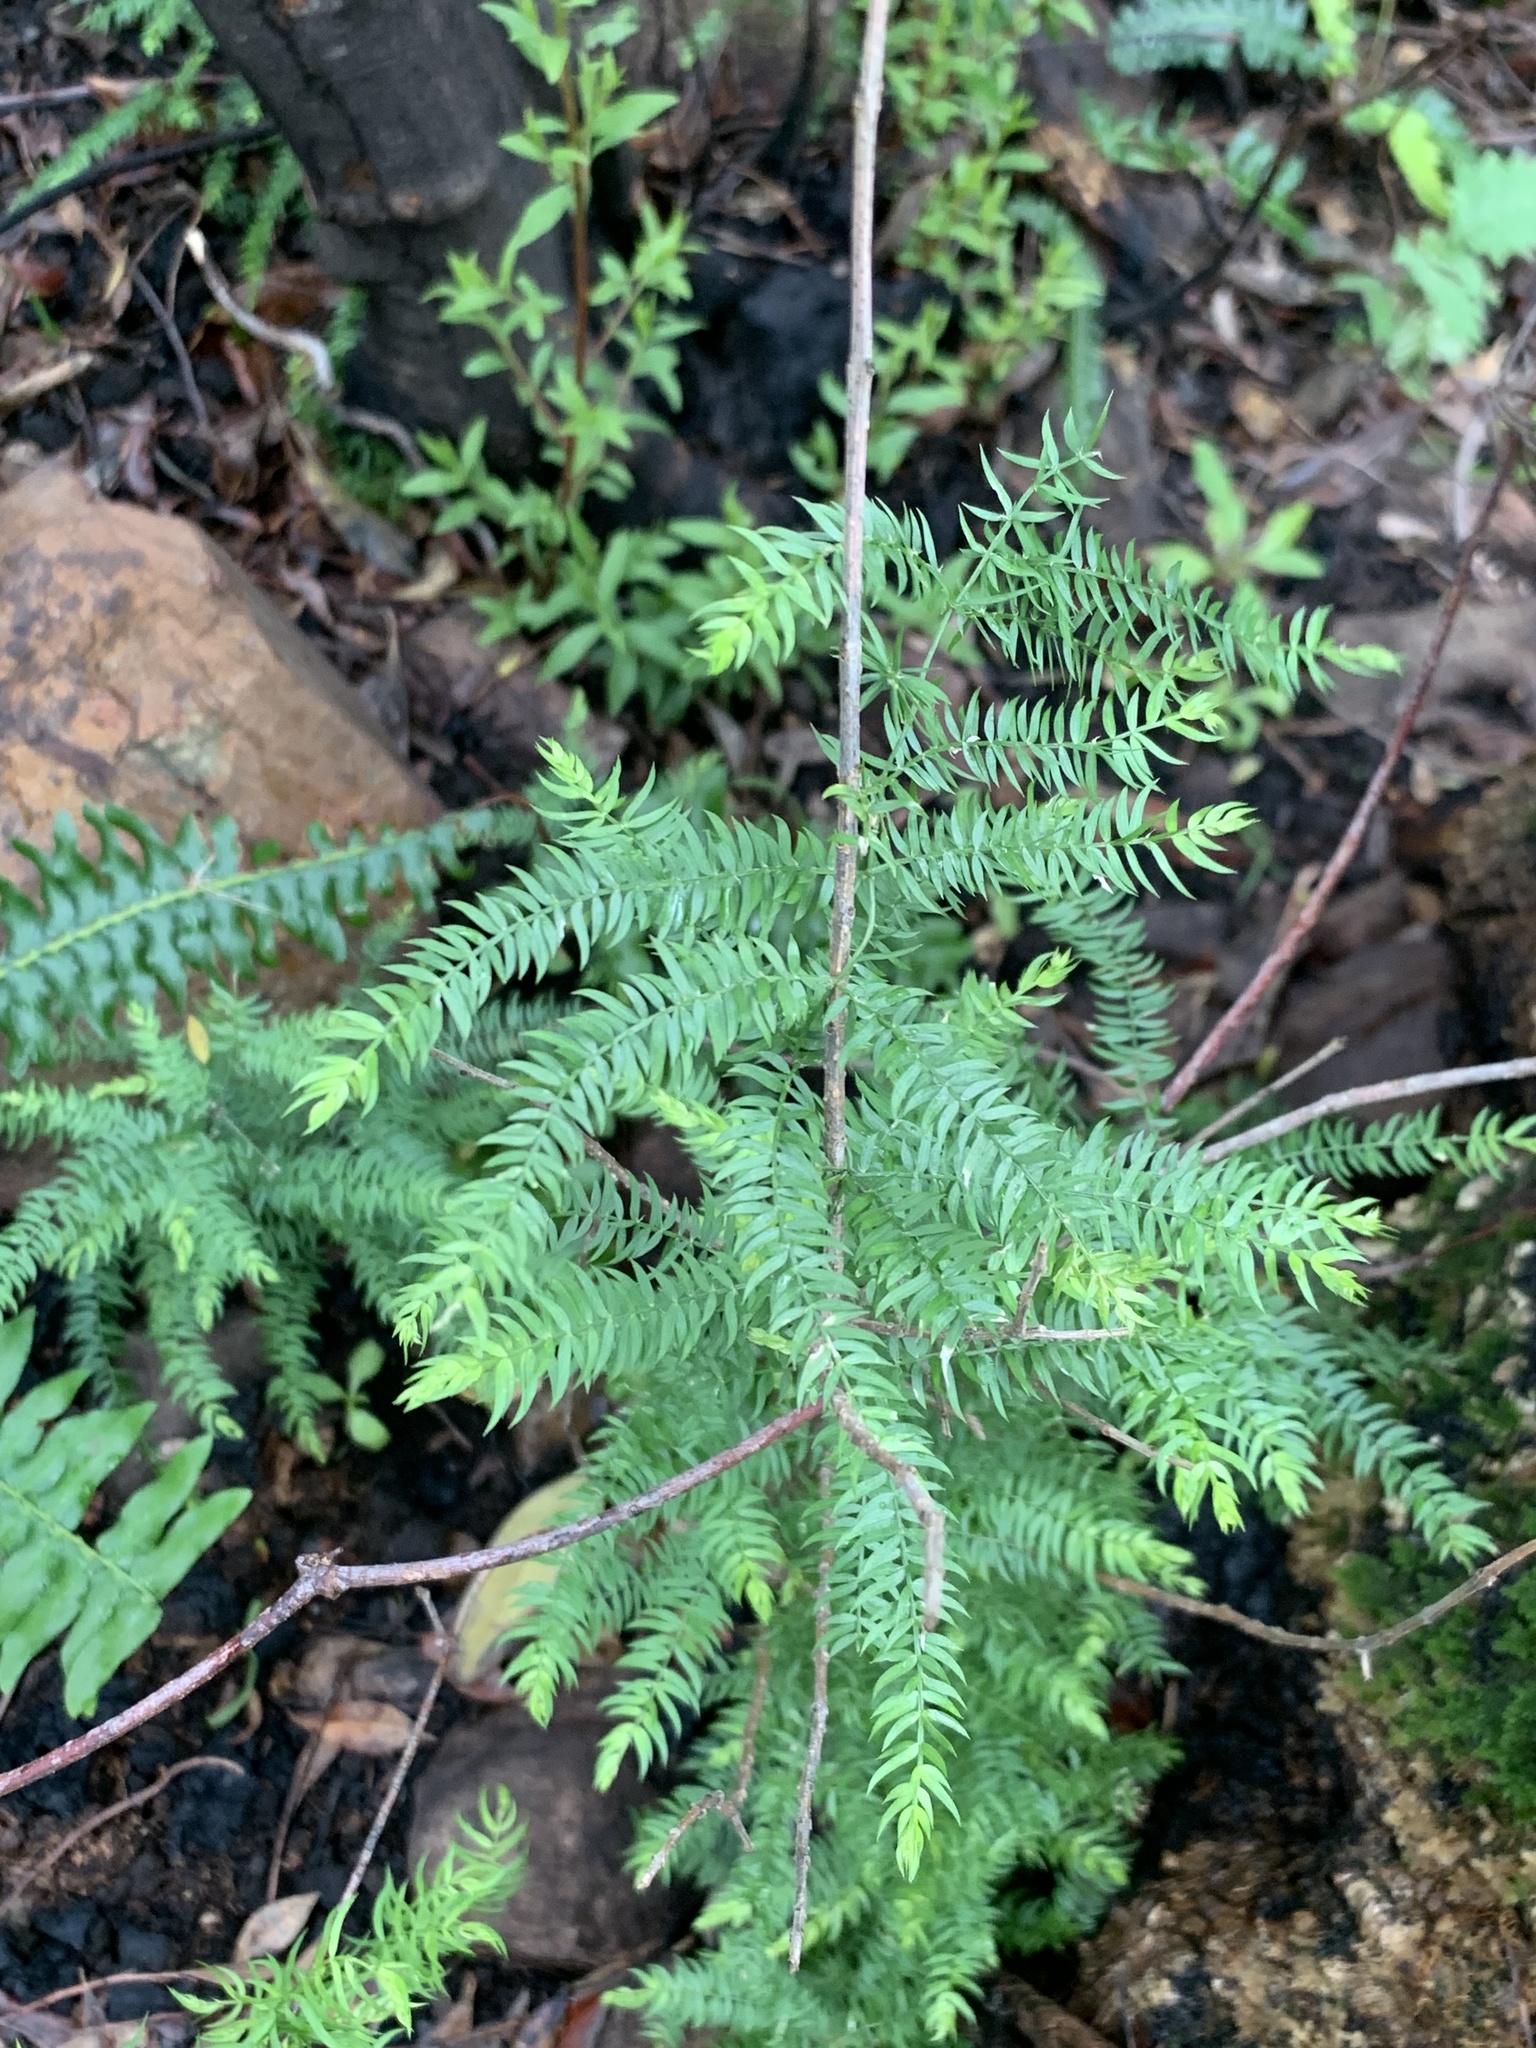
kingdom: Plantae
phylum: Tracheophyta
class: Liliopsida
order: Asparagales
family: Asparagaceae
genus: Asparagus
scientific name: Asparagus scandens
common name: Asparagus-fern
